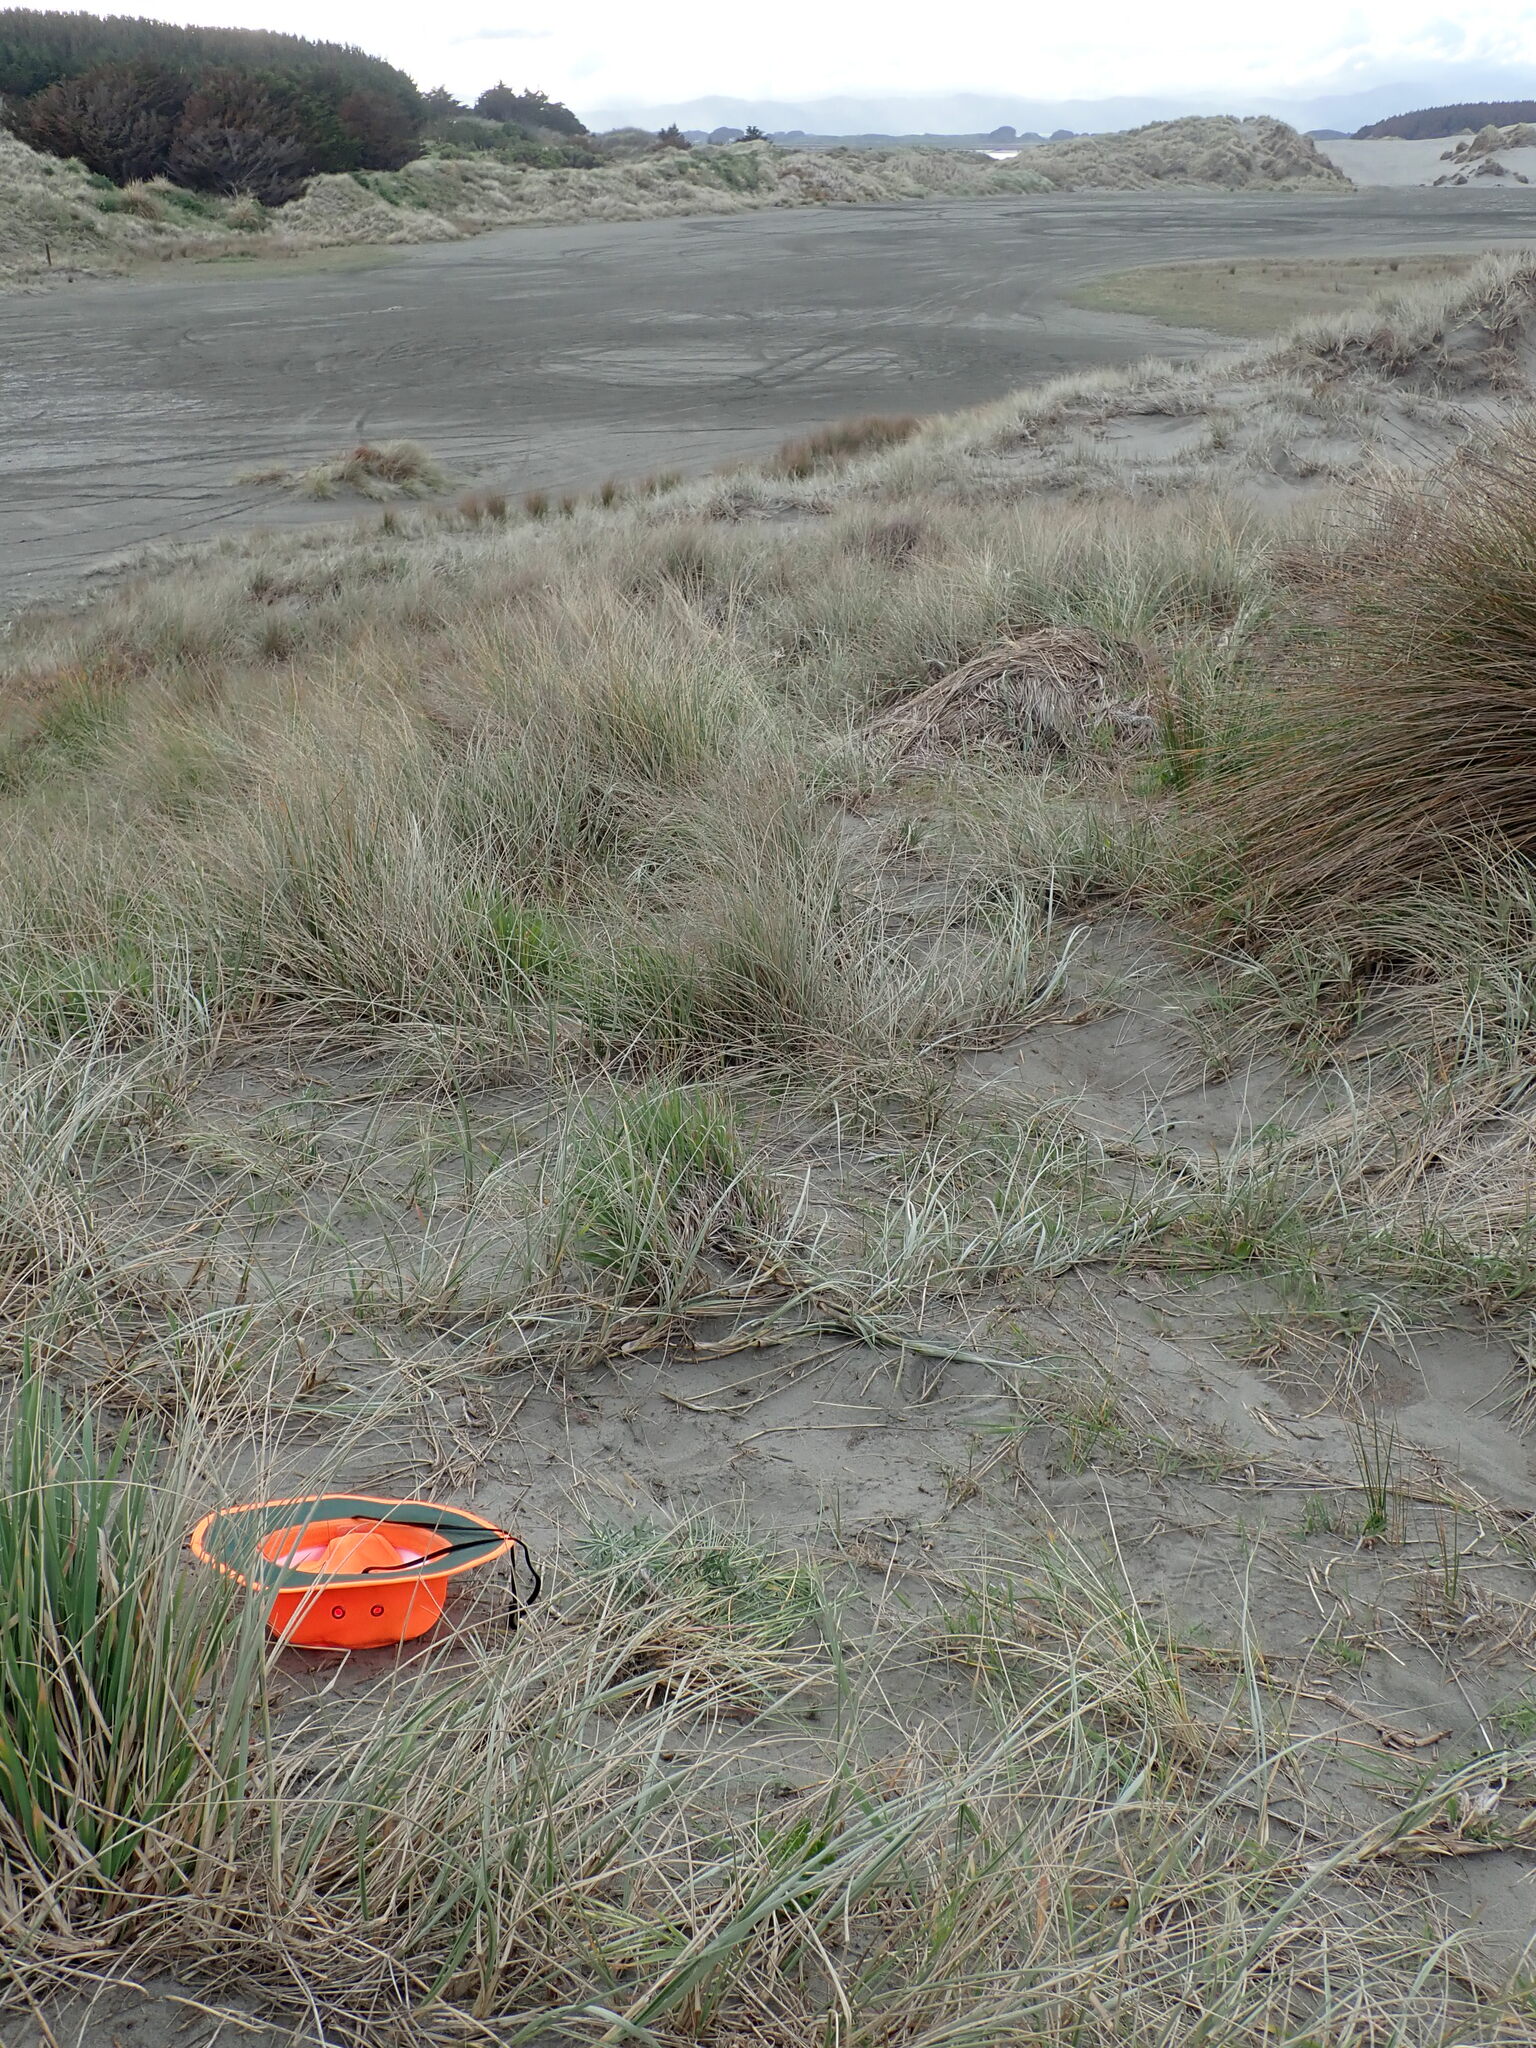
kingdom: Plantae
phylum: Tracheophyta
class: Magnoliopsida
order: Caryophyllales
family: Aizoaceae
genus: Tetragonia
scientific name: Tetragonia implexicoma
